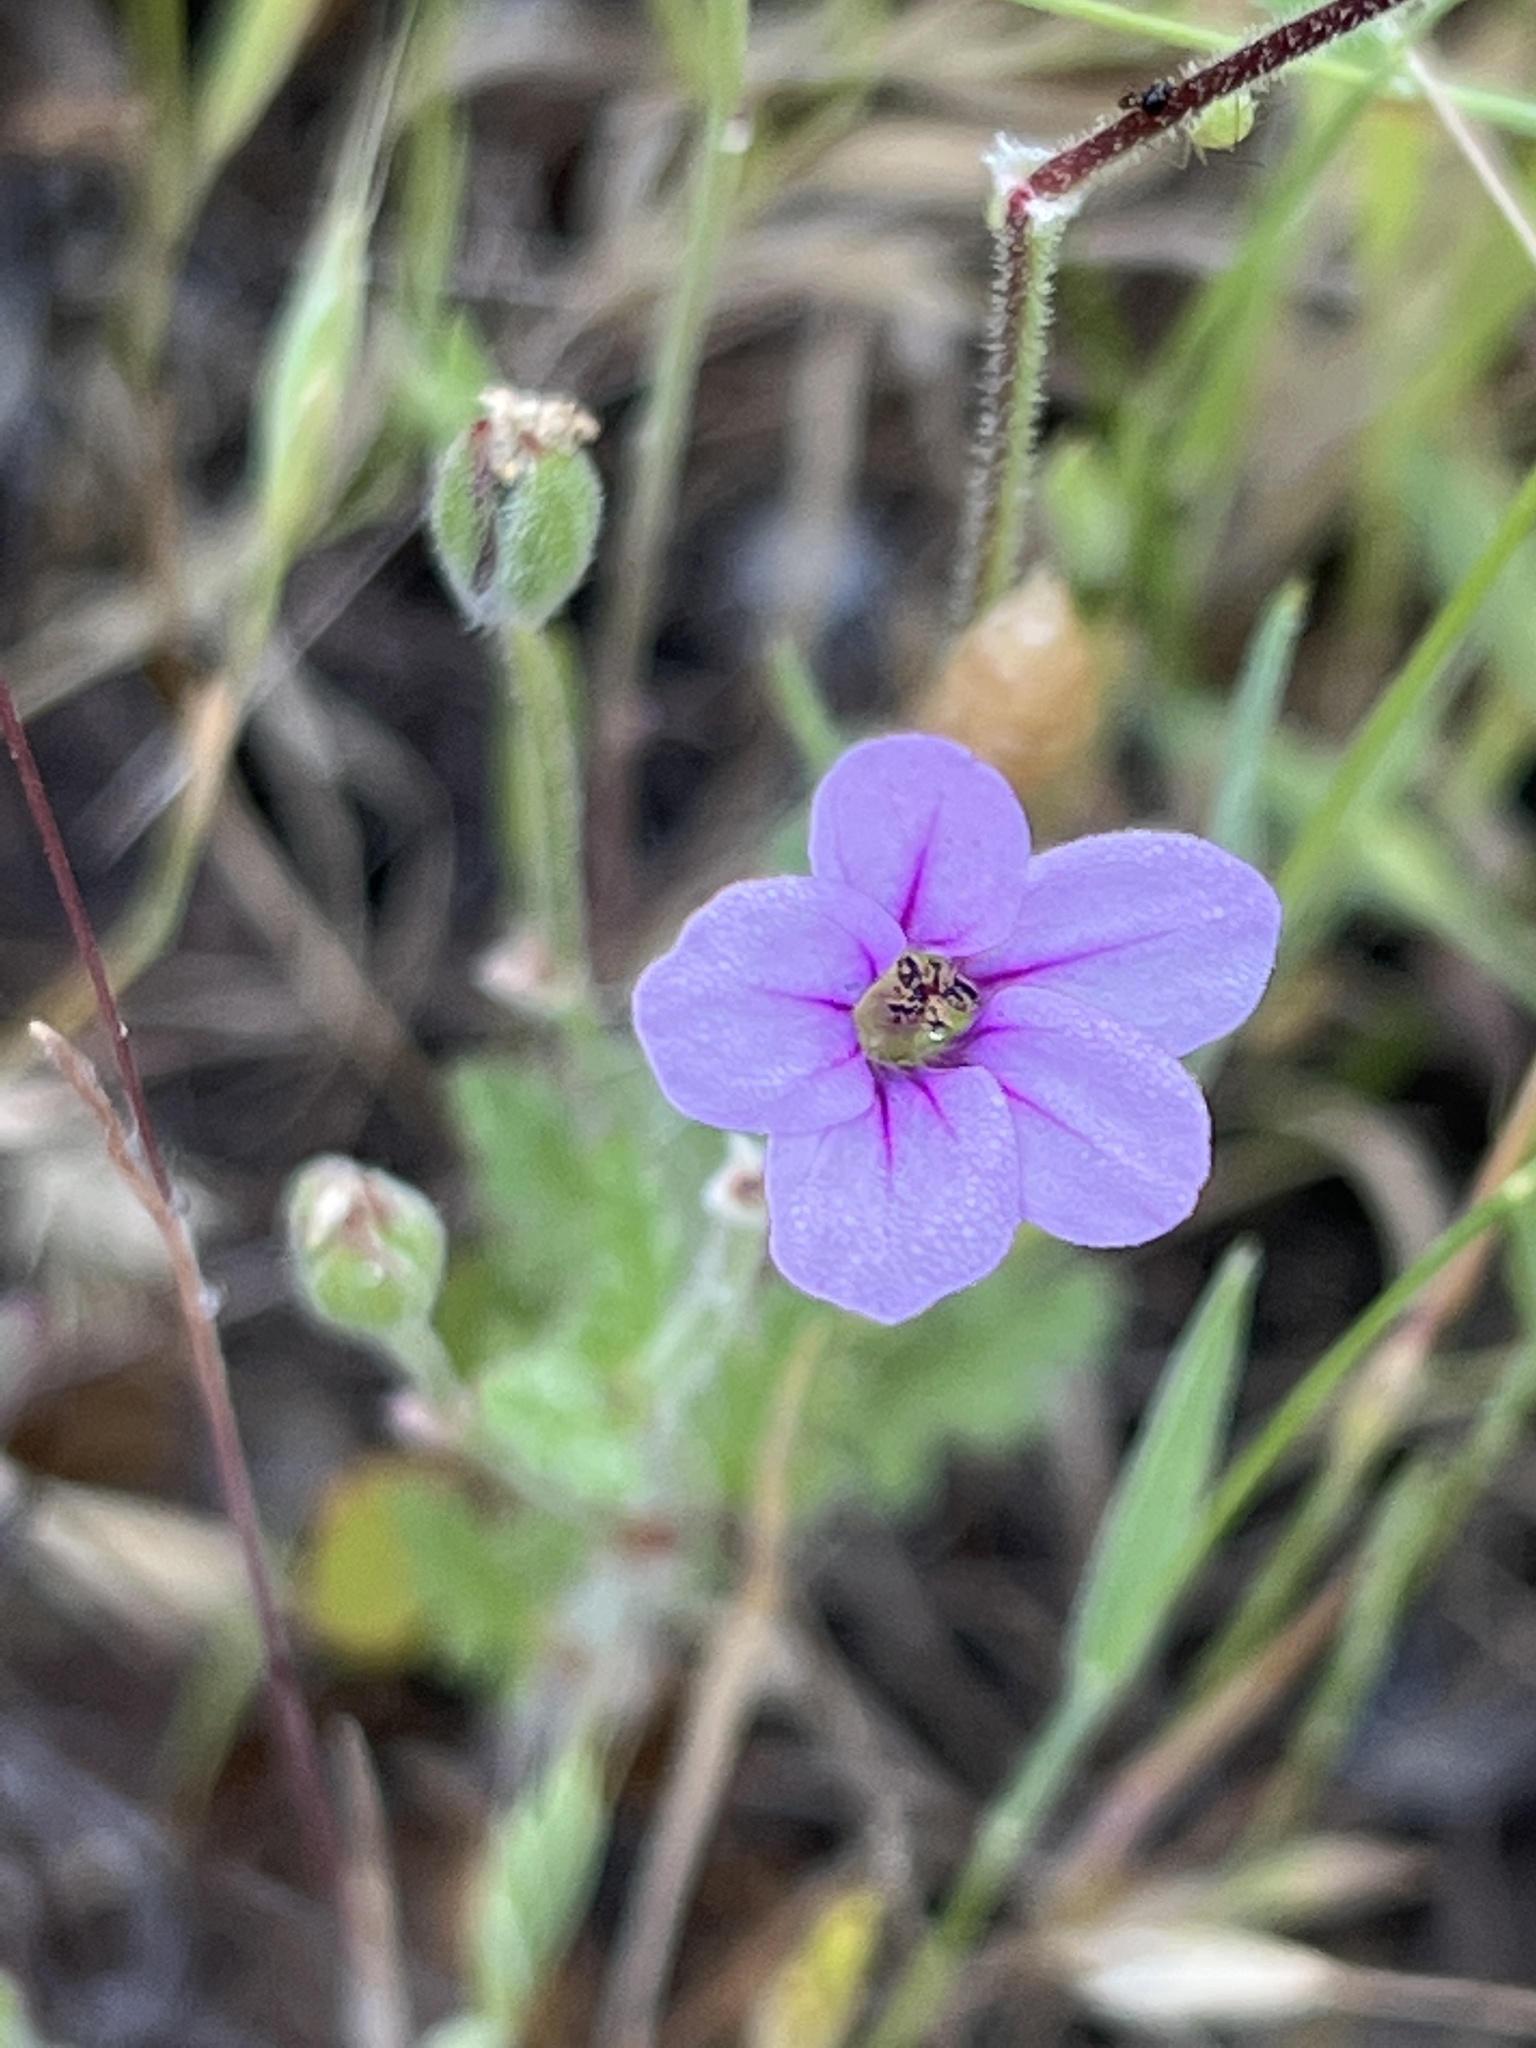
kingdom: Plantae
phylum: Tracheophyta
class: Magnoliopsida
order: Geraniales
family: Geraniaceae
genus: Erodium
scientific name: Erodium botrys
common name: Mediterranean stork's-bill
